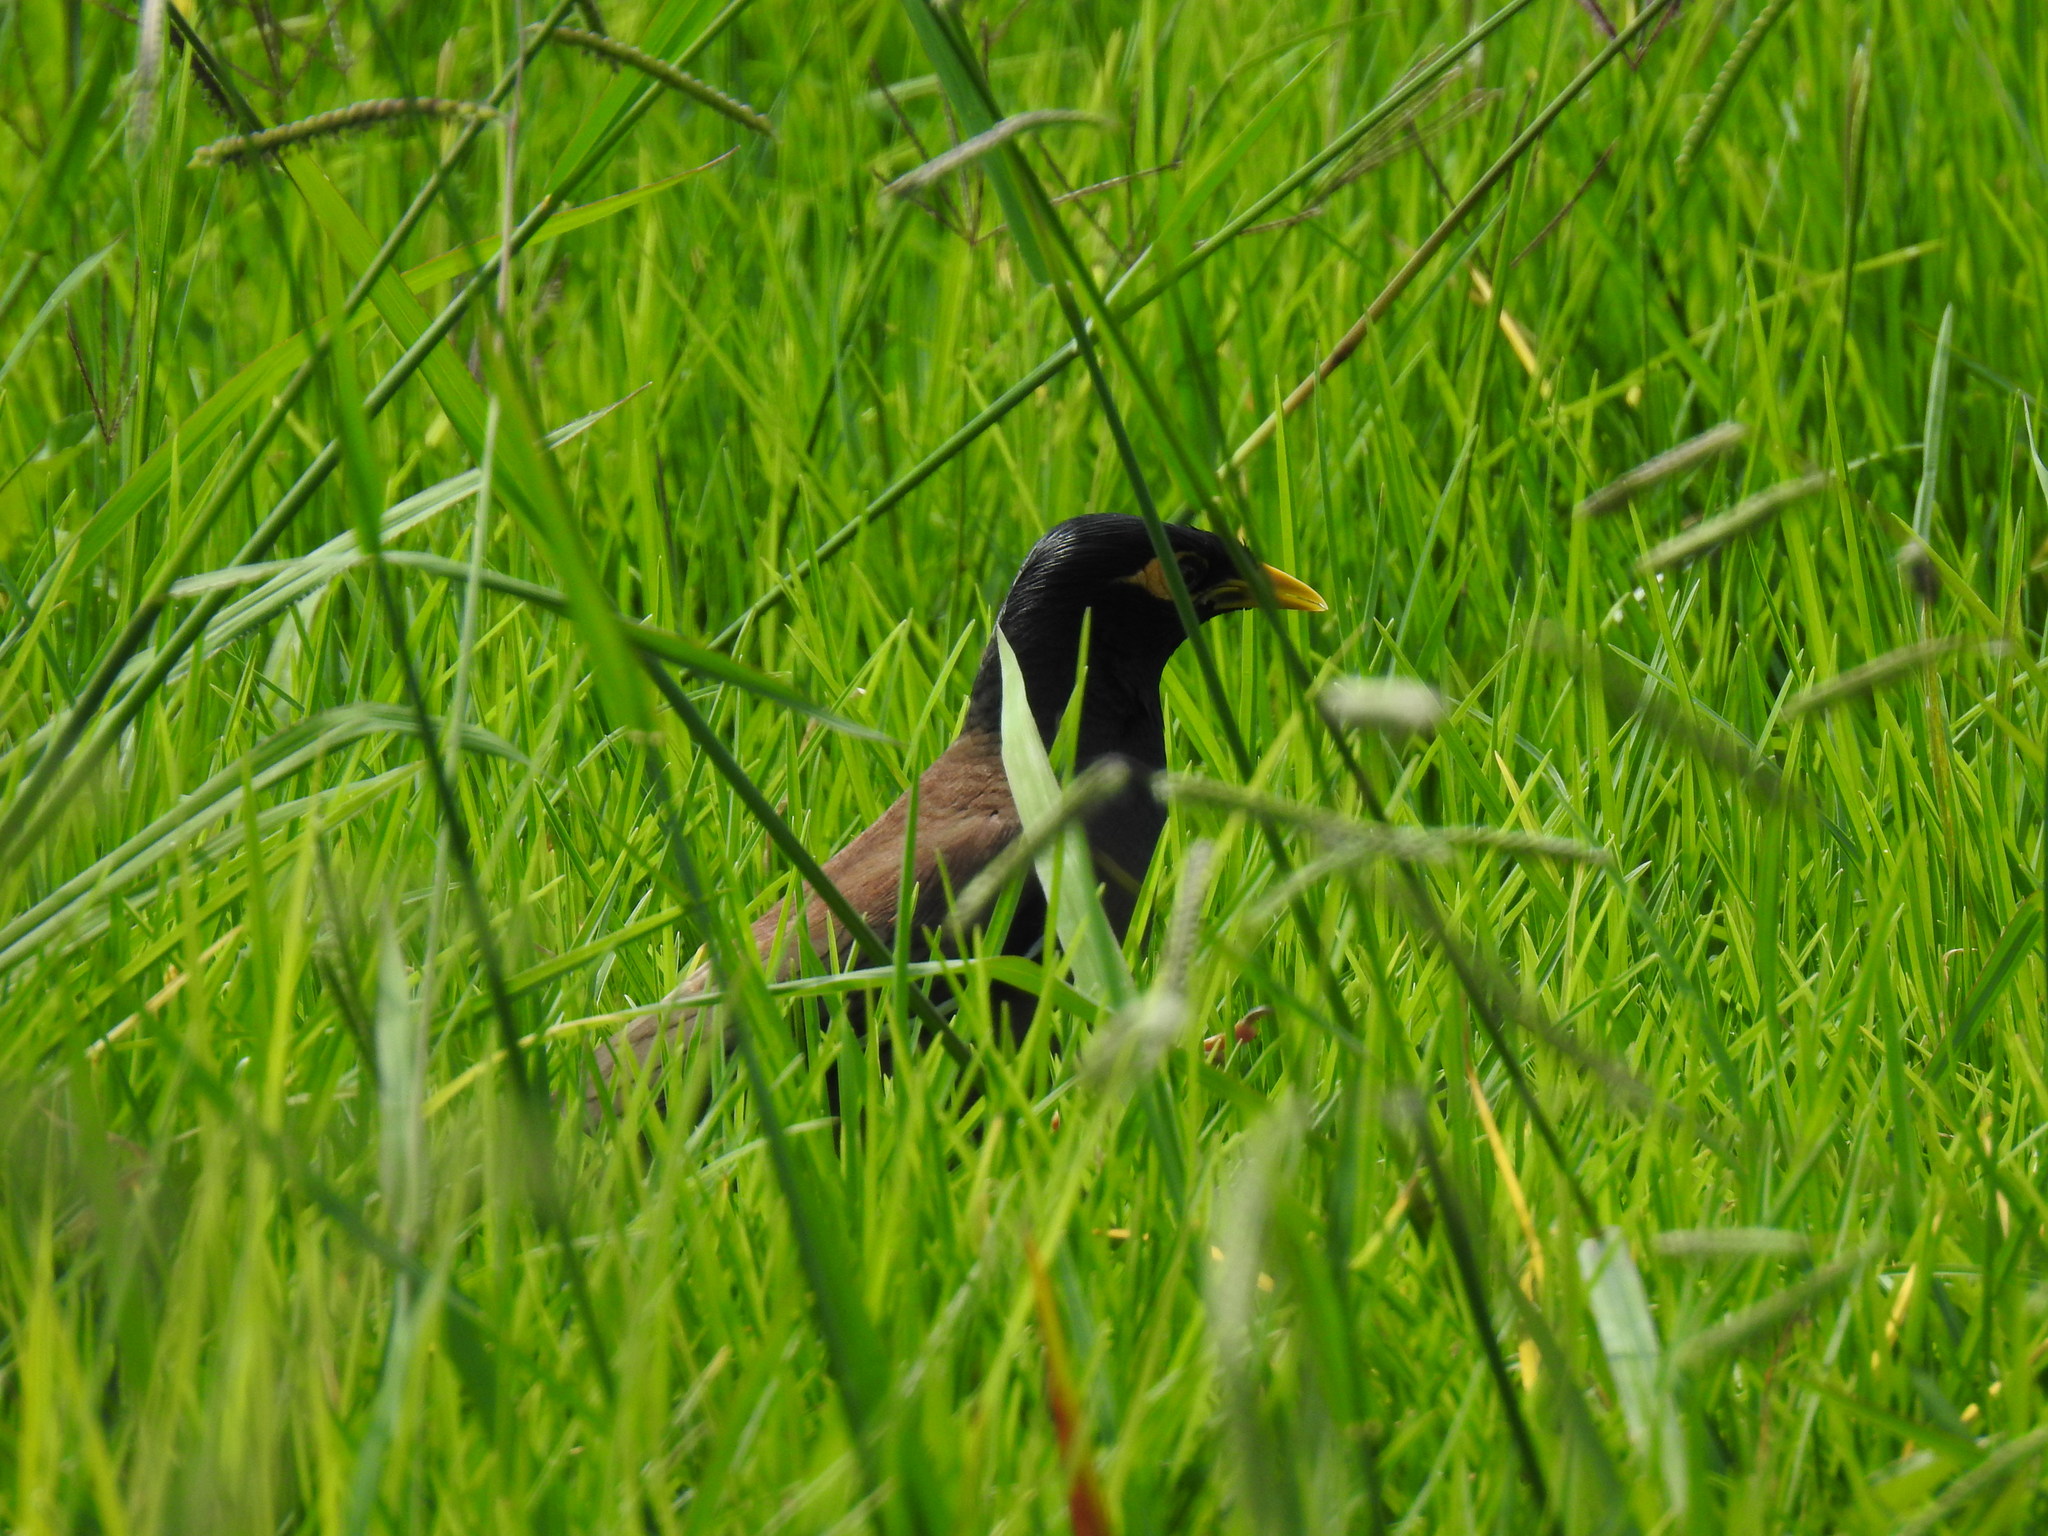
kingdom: Animalia
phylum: Chordata
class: Aves
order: Passeriformes
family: Sturnidae
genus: Acridotheres
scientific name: Acridotheres tristis
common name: Common myna
